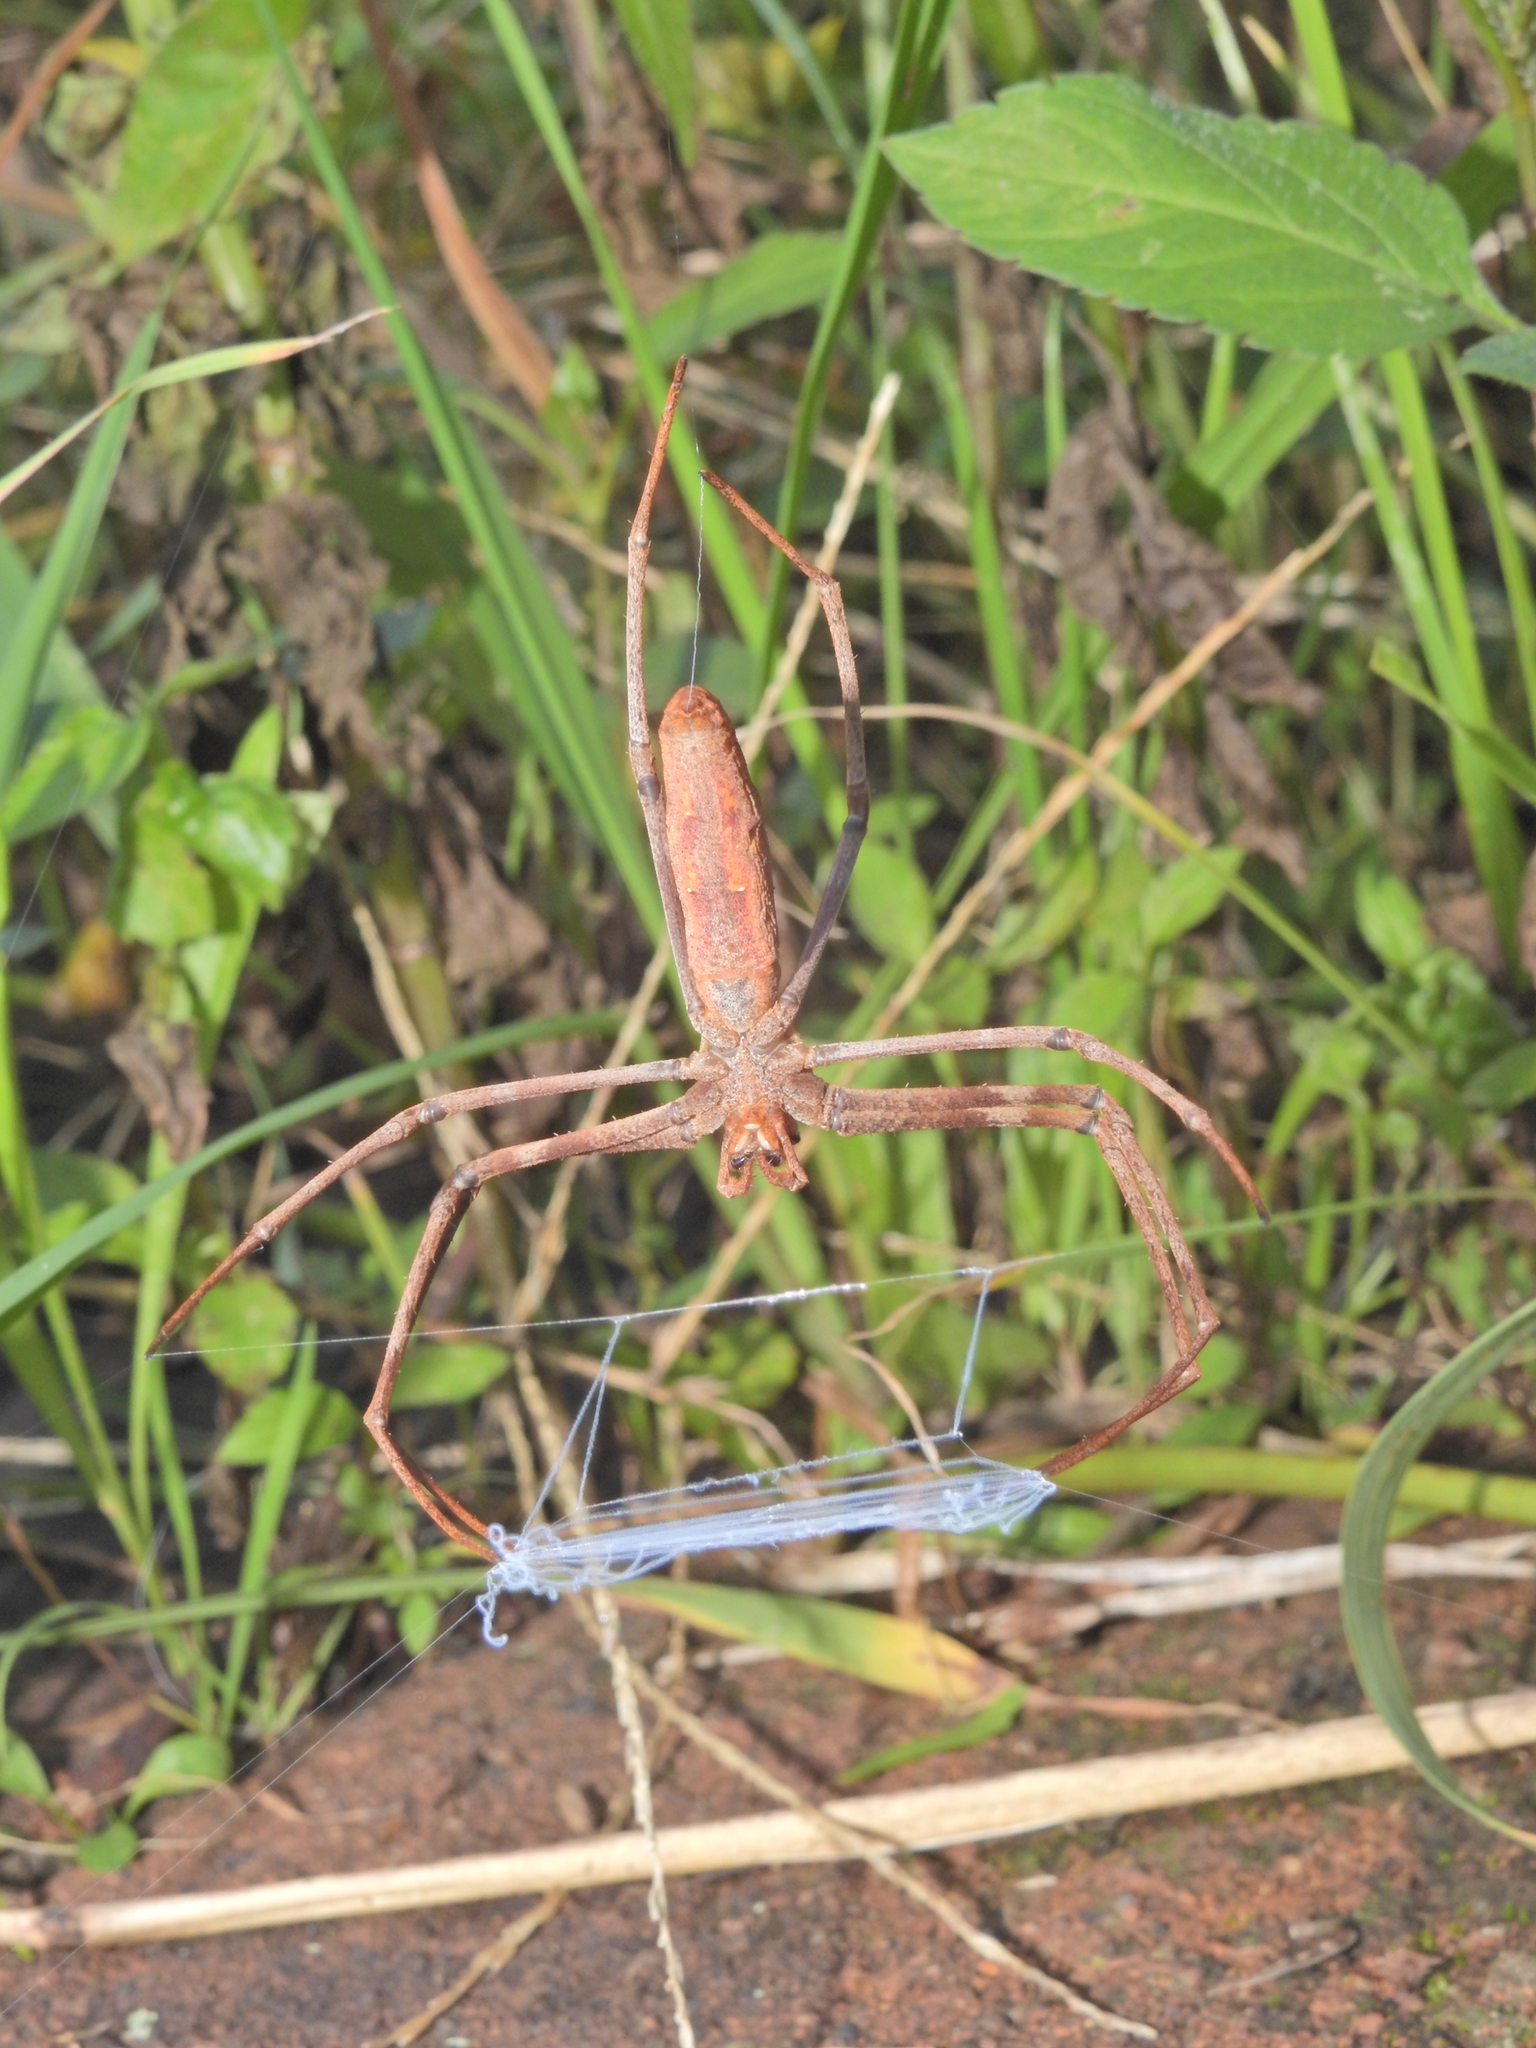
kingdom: Animalia
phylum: Arthropoda
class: Arachnida
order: Araneae
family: Deinopidae
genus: Deinopis
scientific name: Deinopis subrufa
